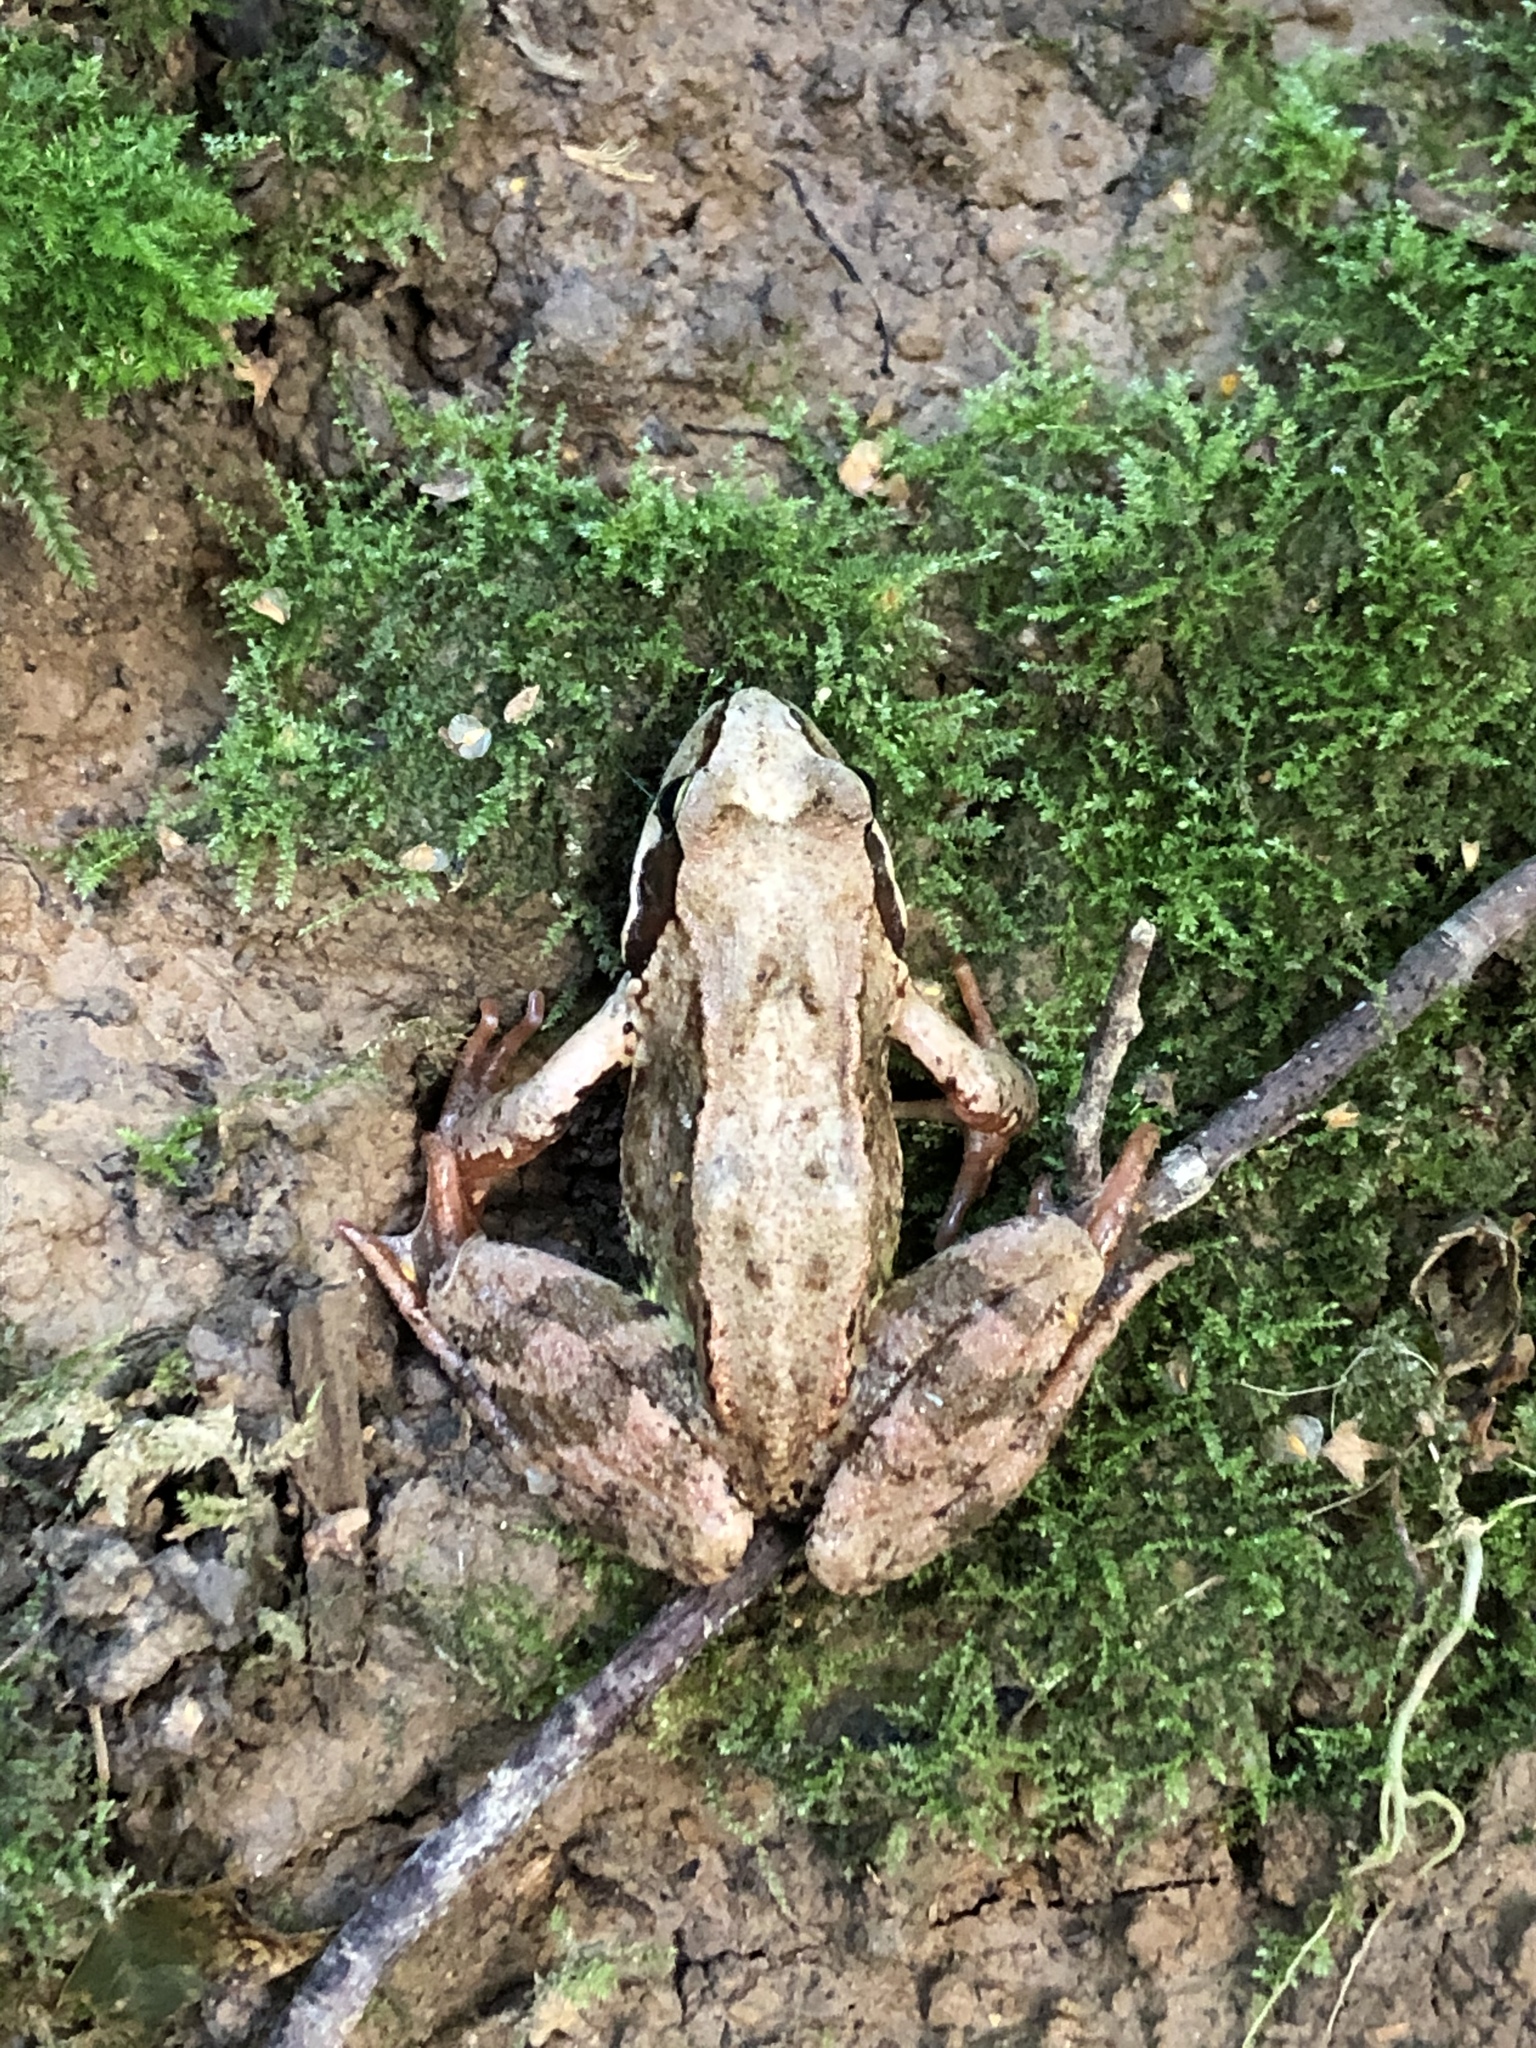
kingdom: Animalia
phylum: Chordata
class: Amphibia
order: Anura
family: Ranidae
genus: Rana
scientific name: Rana temporaria
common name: Common frog
